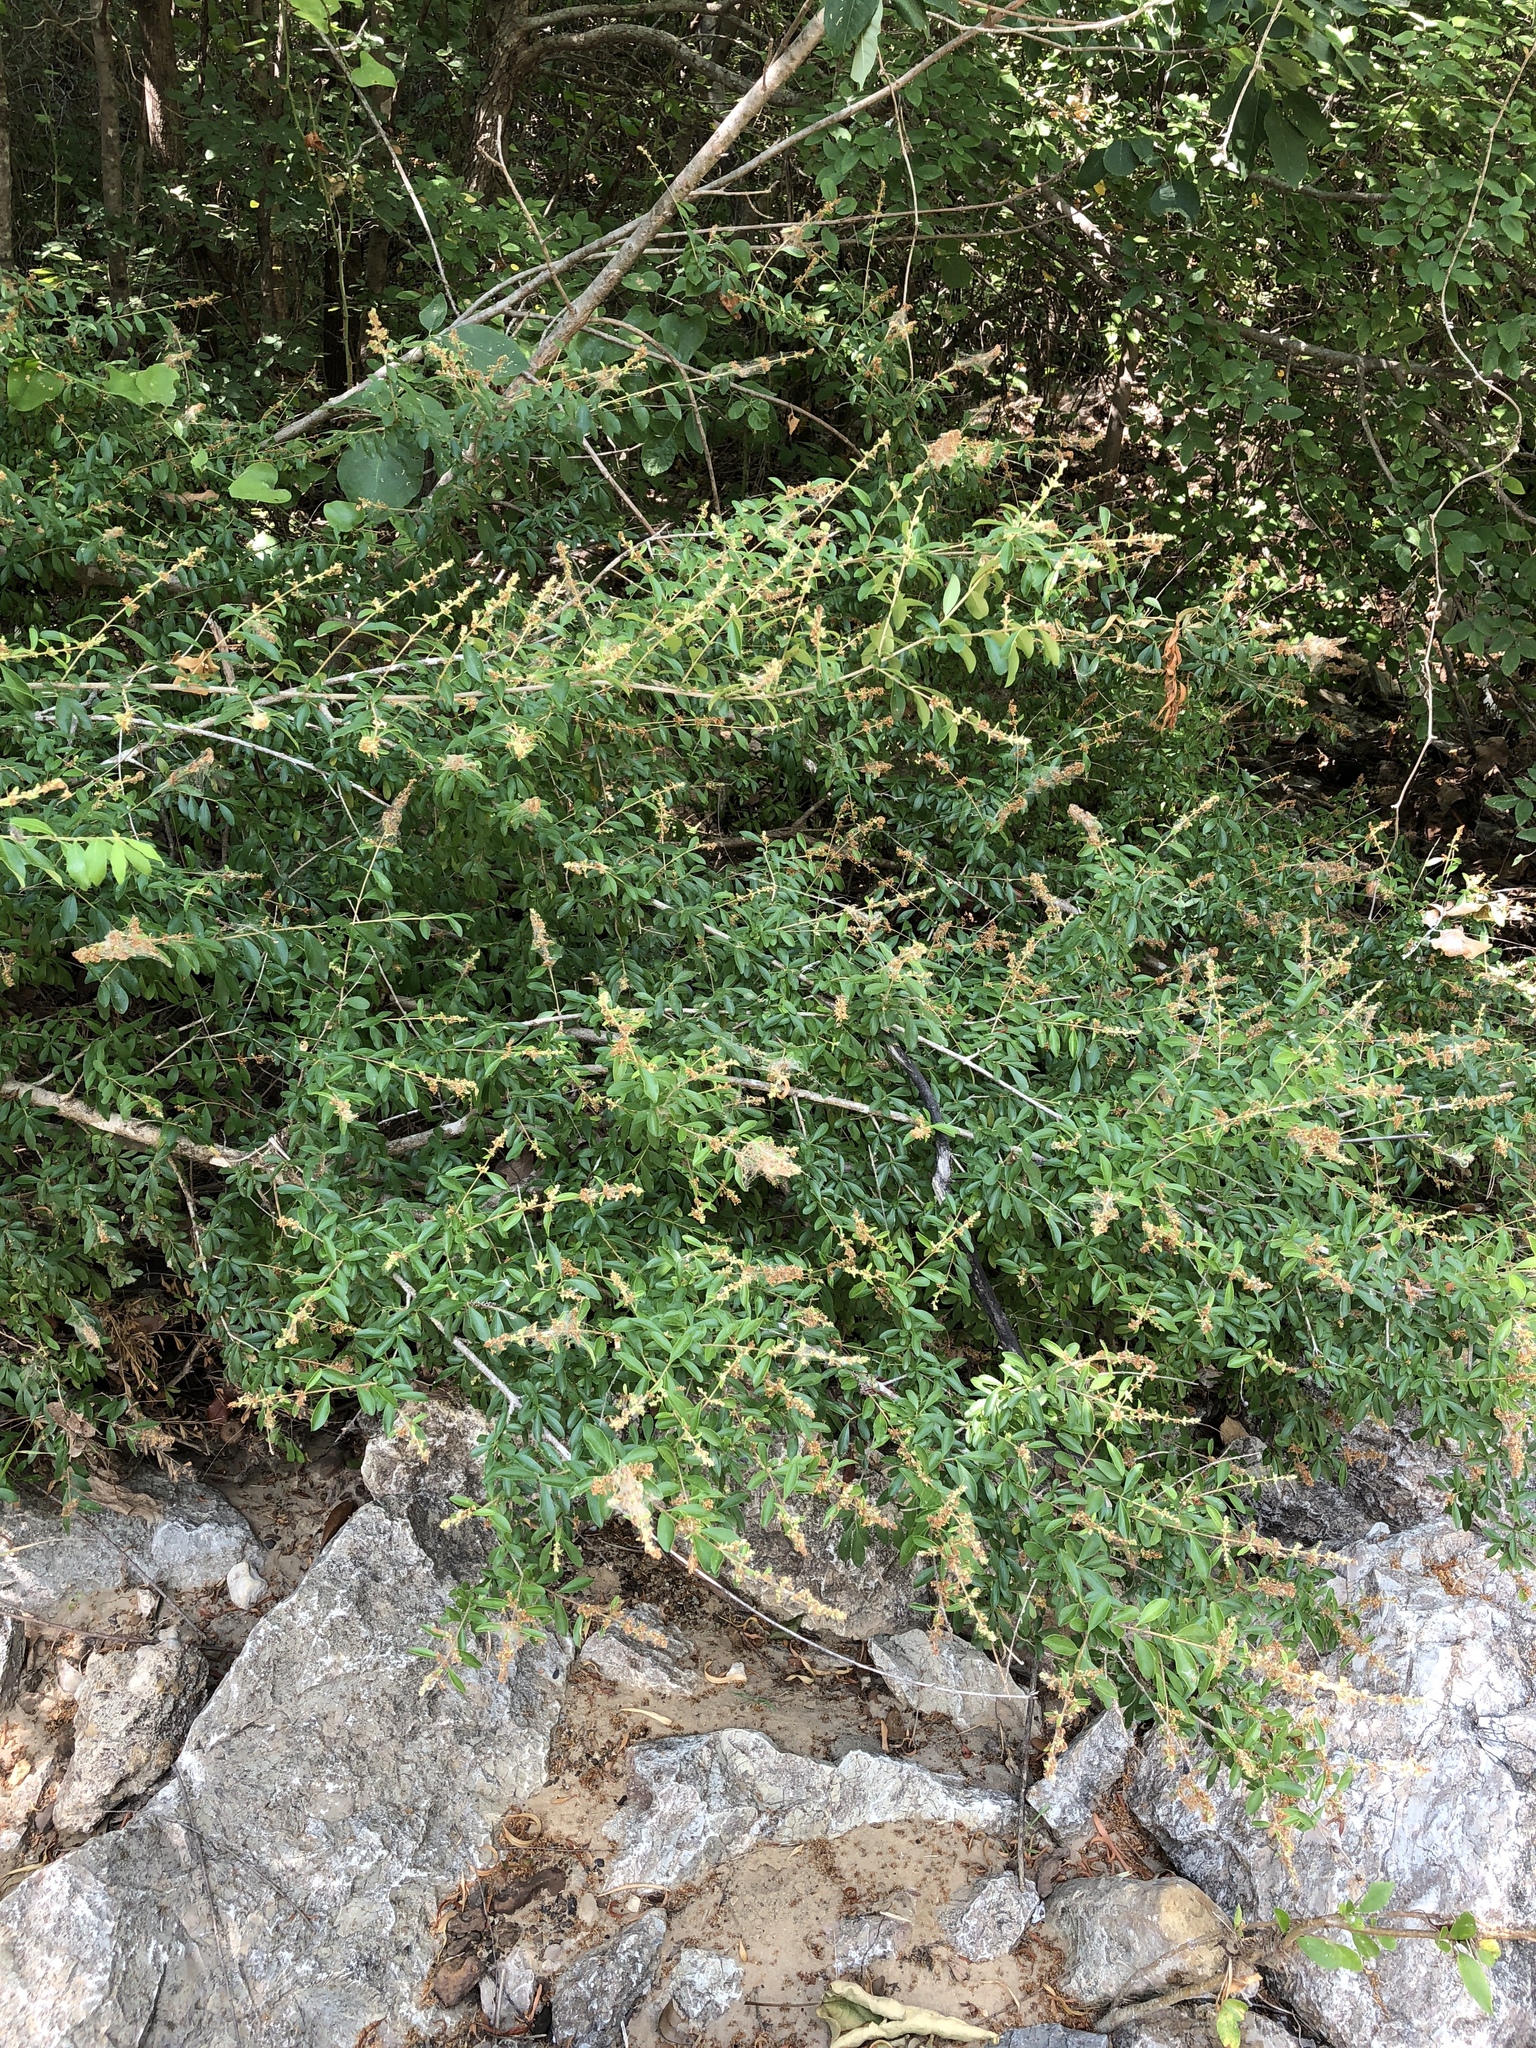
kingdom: Plantae
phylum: Tracheophyta
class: Magnoliopsida
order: Lamiales
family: Oleaceae
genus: Ligustrum
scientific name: Ligustrum quihoui
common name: Waxyleaf privet
